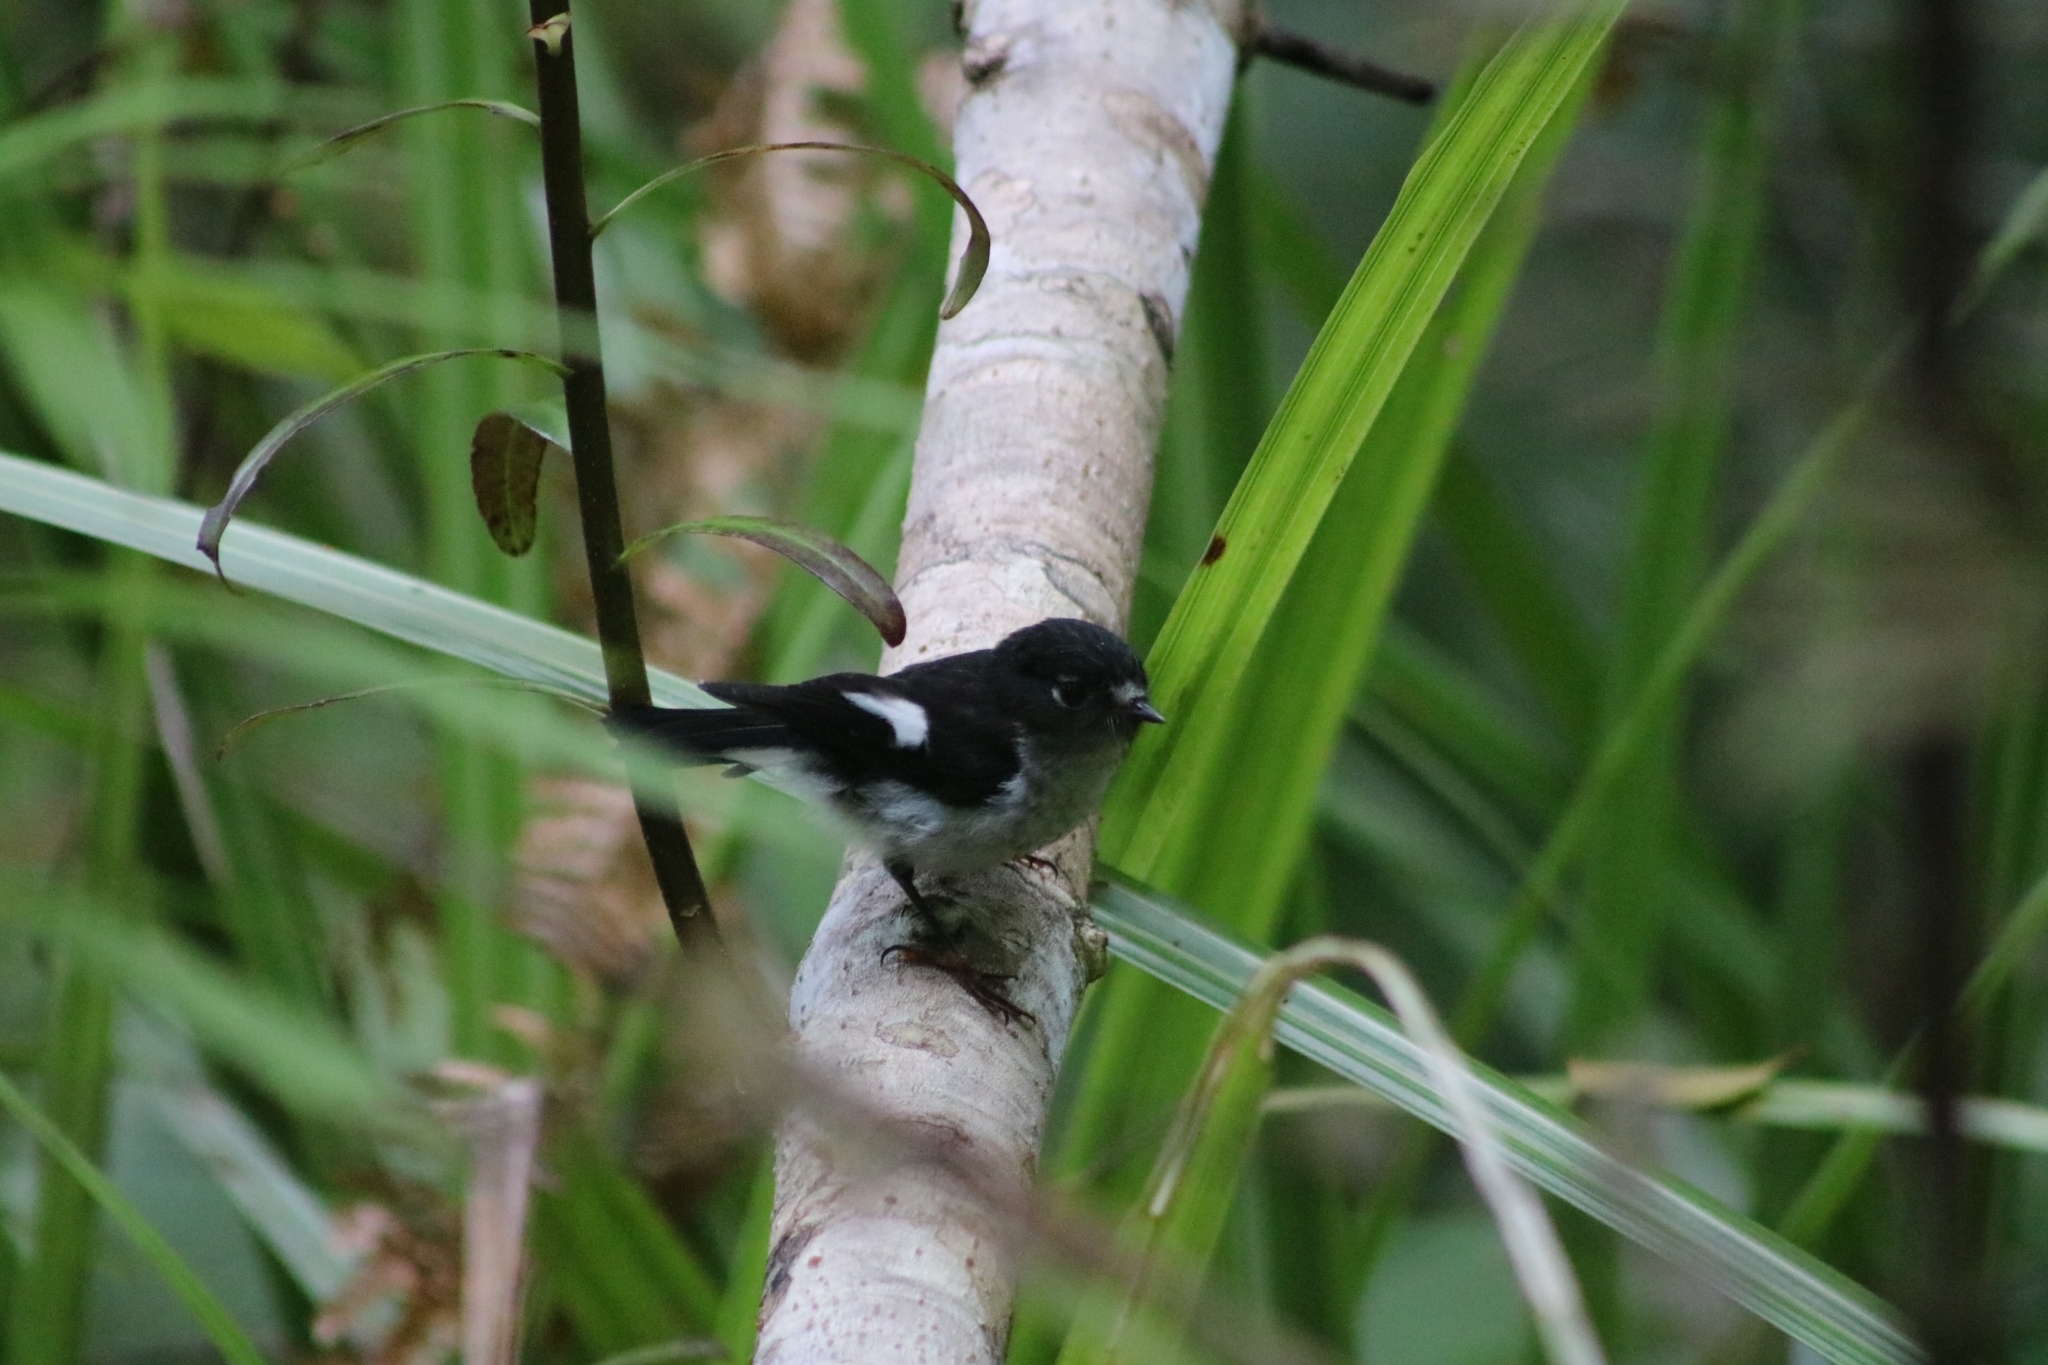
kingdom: Animalia
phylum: Chordata
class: Aves
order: Passeriformes
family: Petroicidae
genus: Petroica
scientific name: Petroica macrocephala
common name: Tomtit
